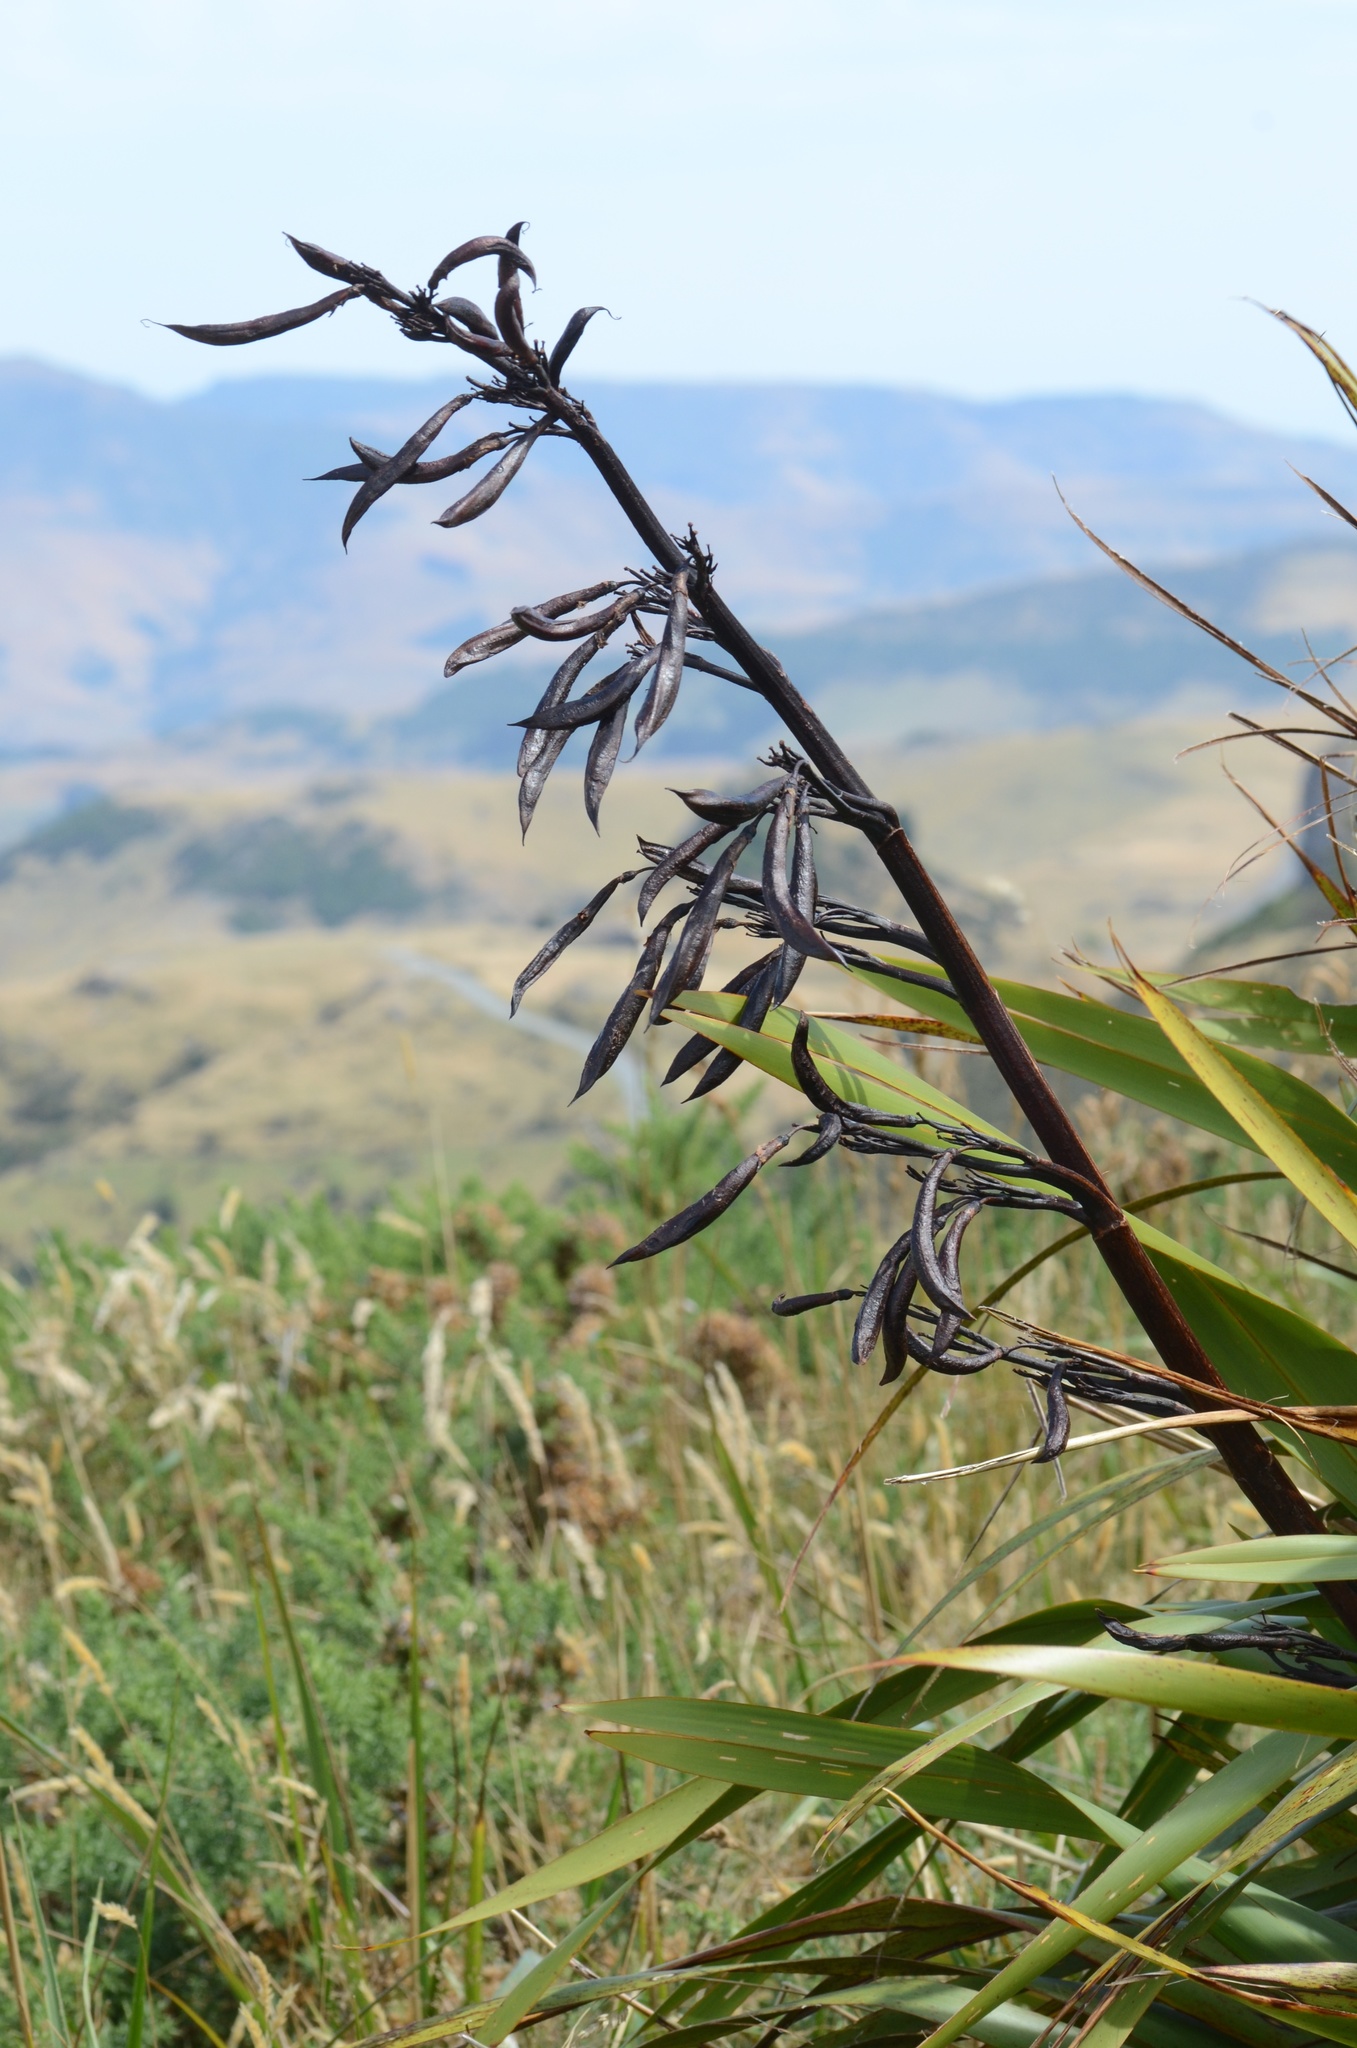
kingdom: Plantae
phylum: Tracheophyta
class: Liliopsida
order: Asparagales
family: Asphodelaceae
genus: Phormium
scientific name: Phormium colensoi
